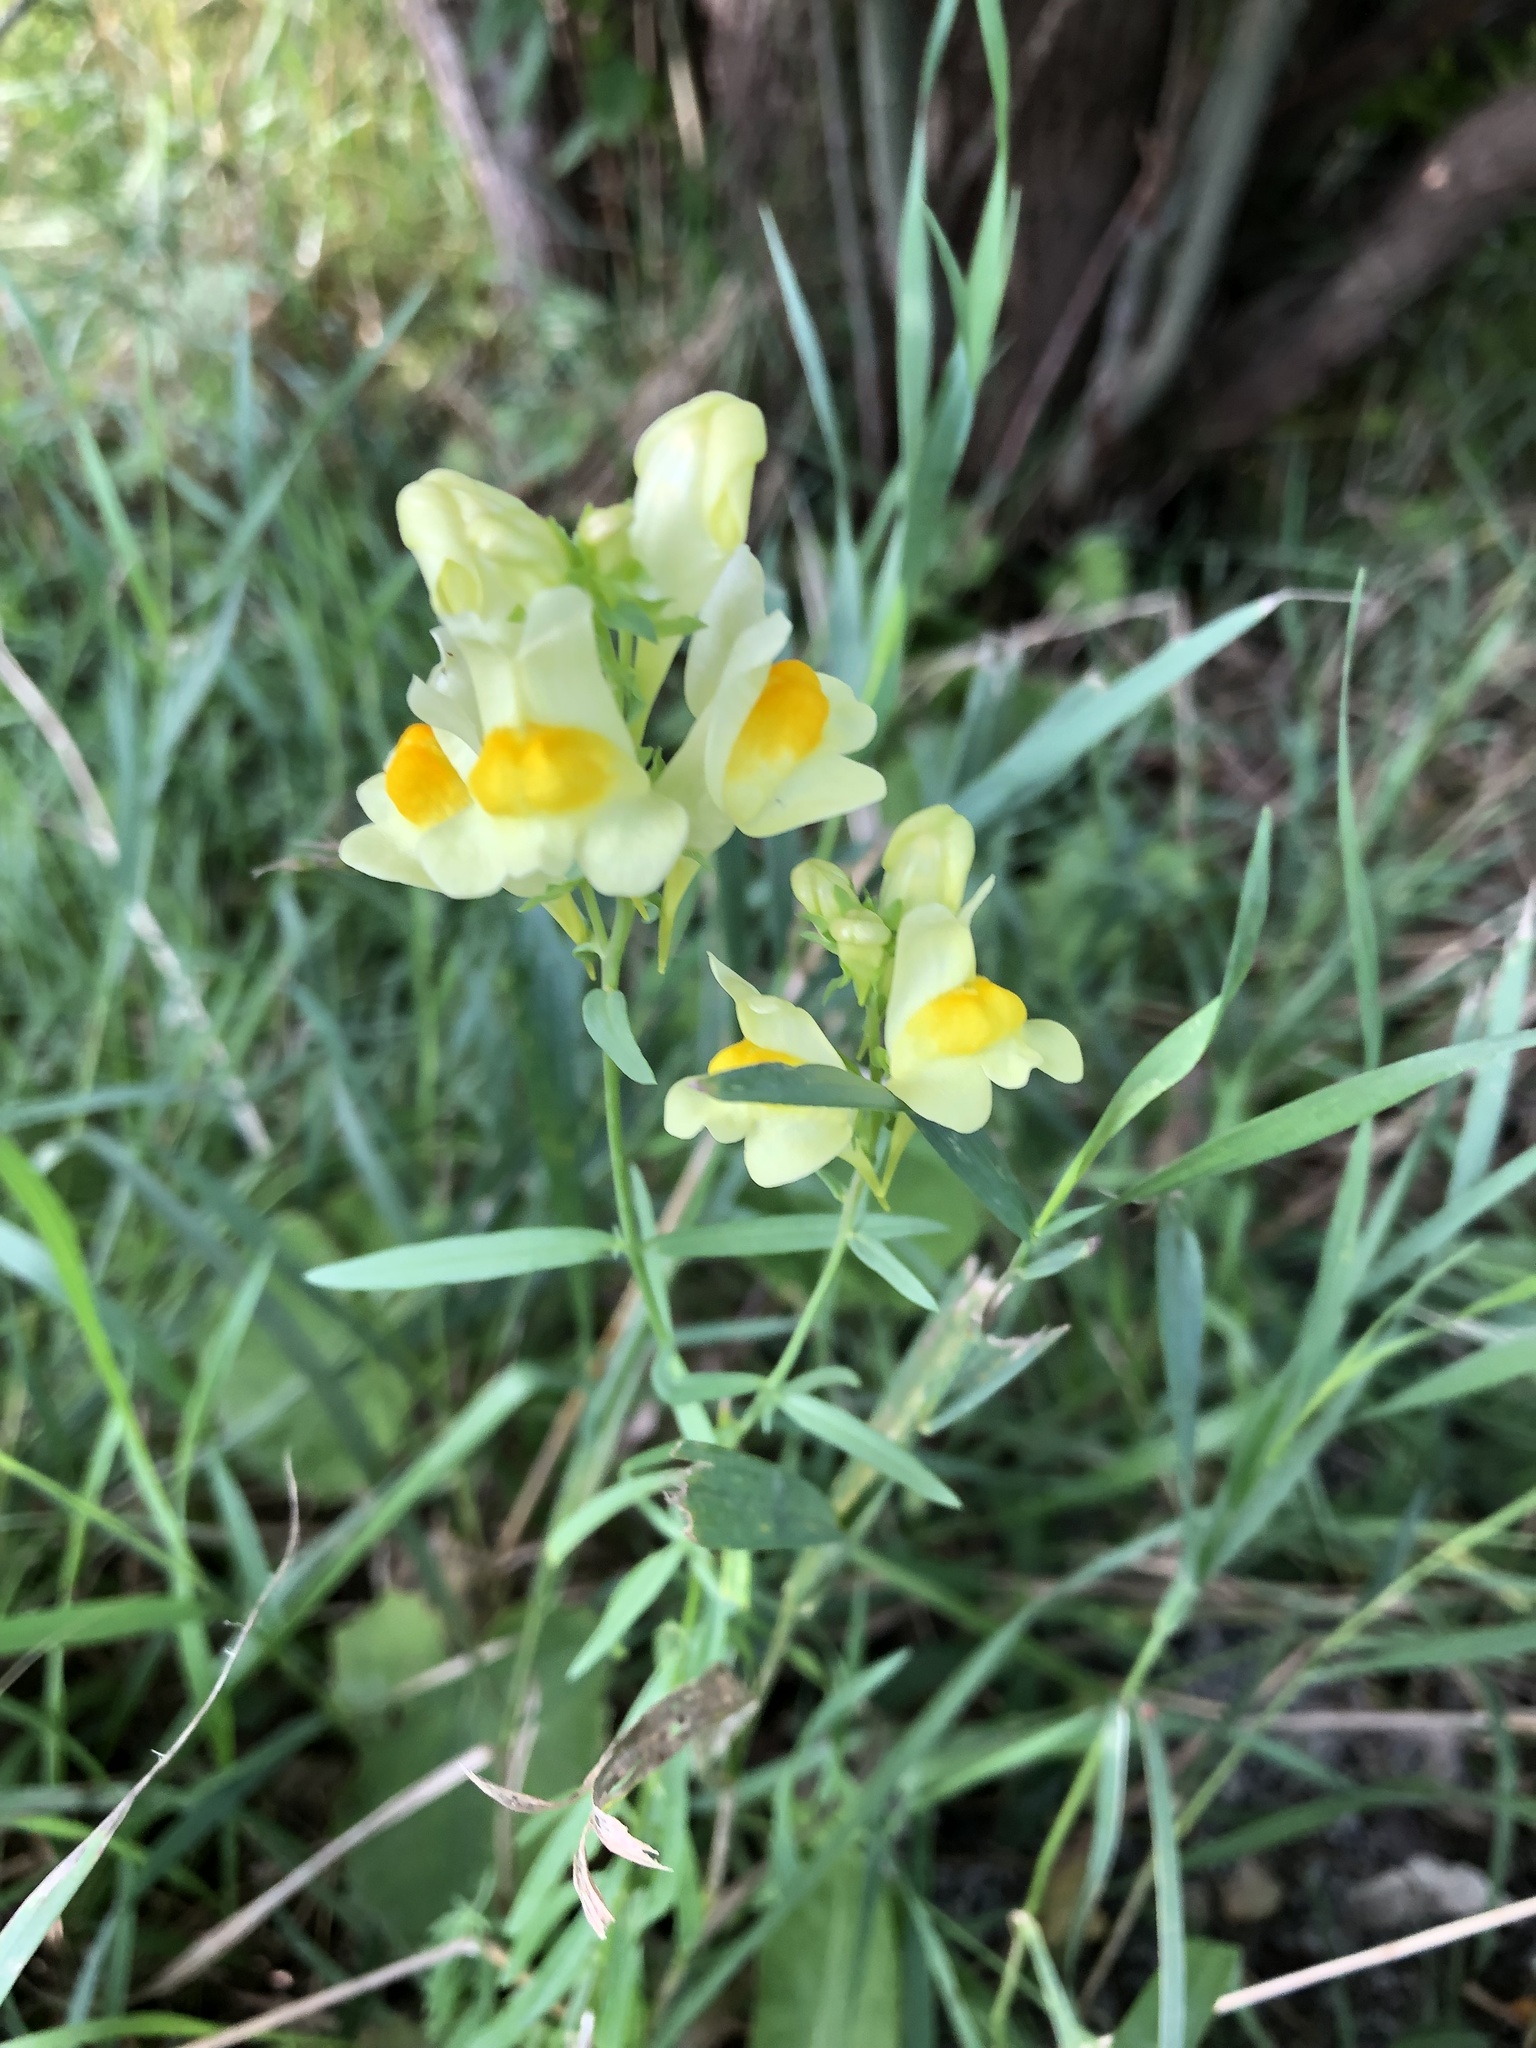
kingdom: Plantae
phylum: Tracheophyta
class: Magnoliopsida
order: Lamiales
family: Plantaginaceae
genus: Linaria
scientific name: Linaria vulgaris
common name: Butter and eggs
